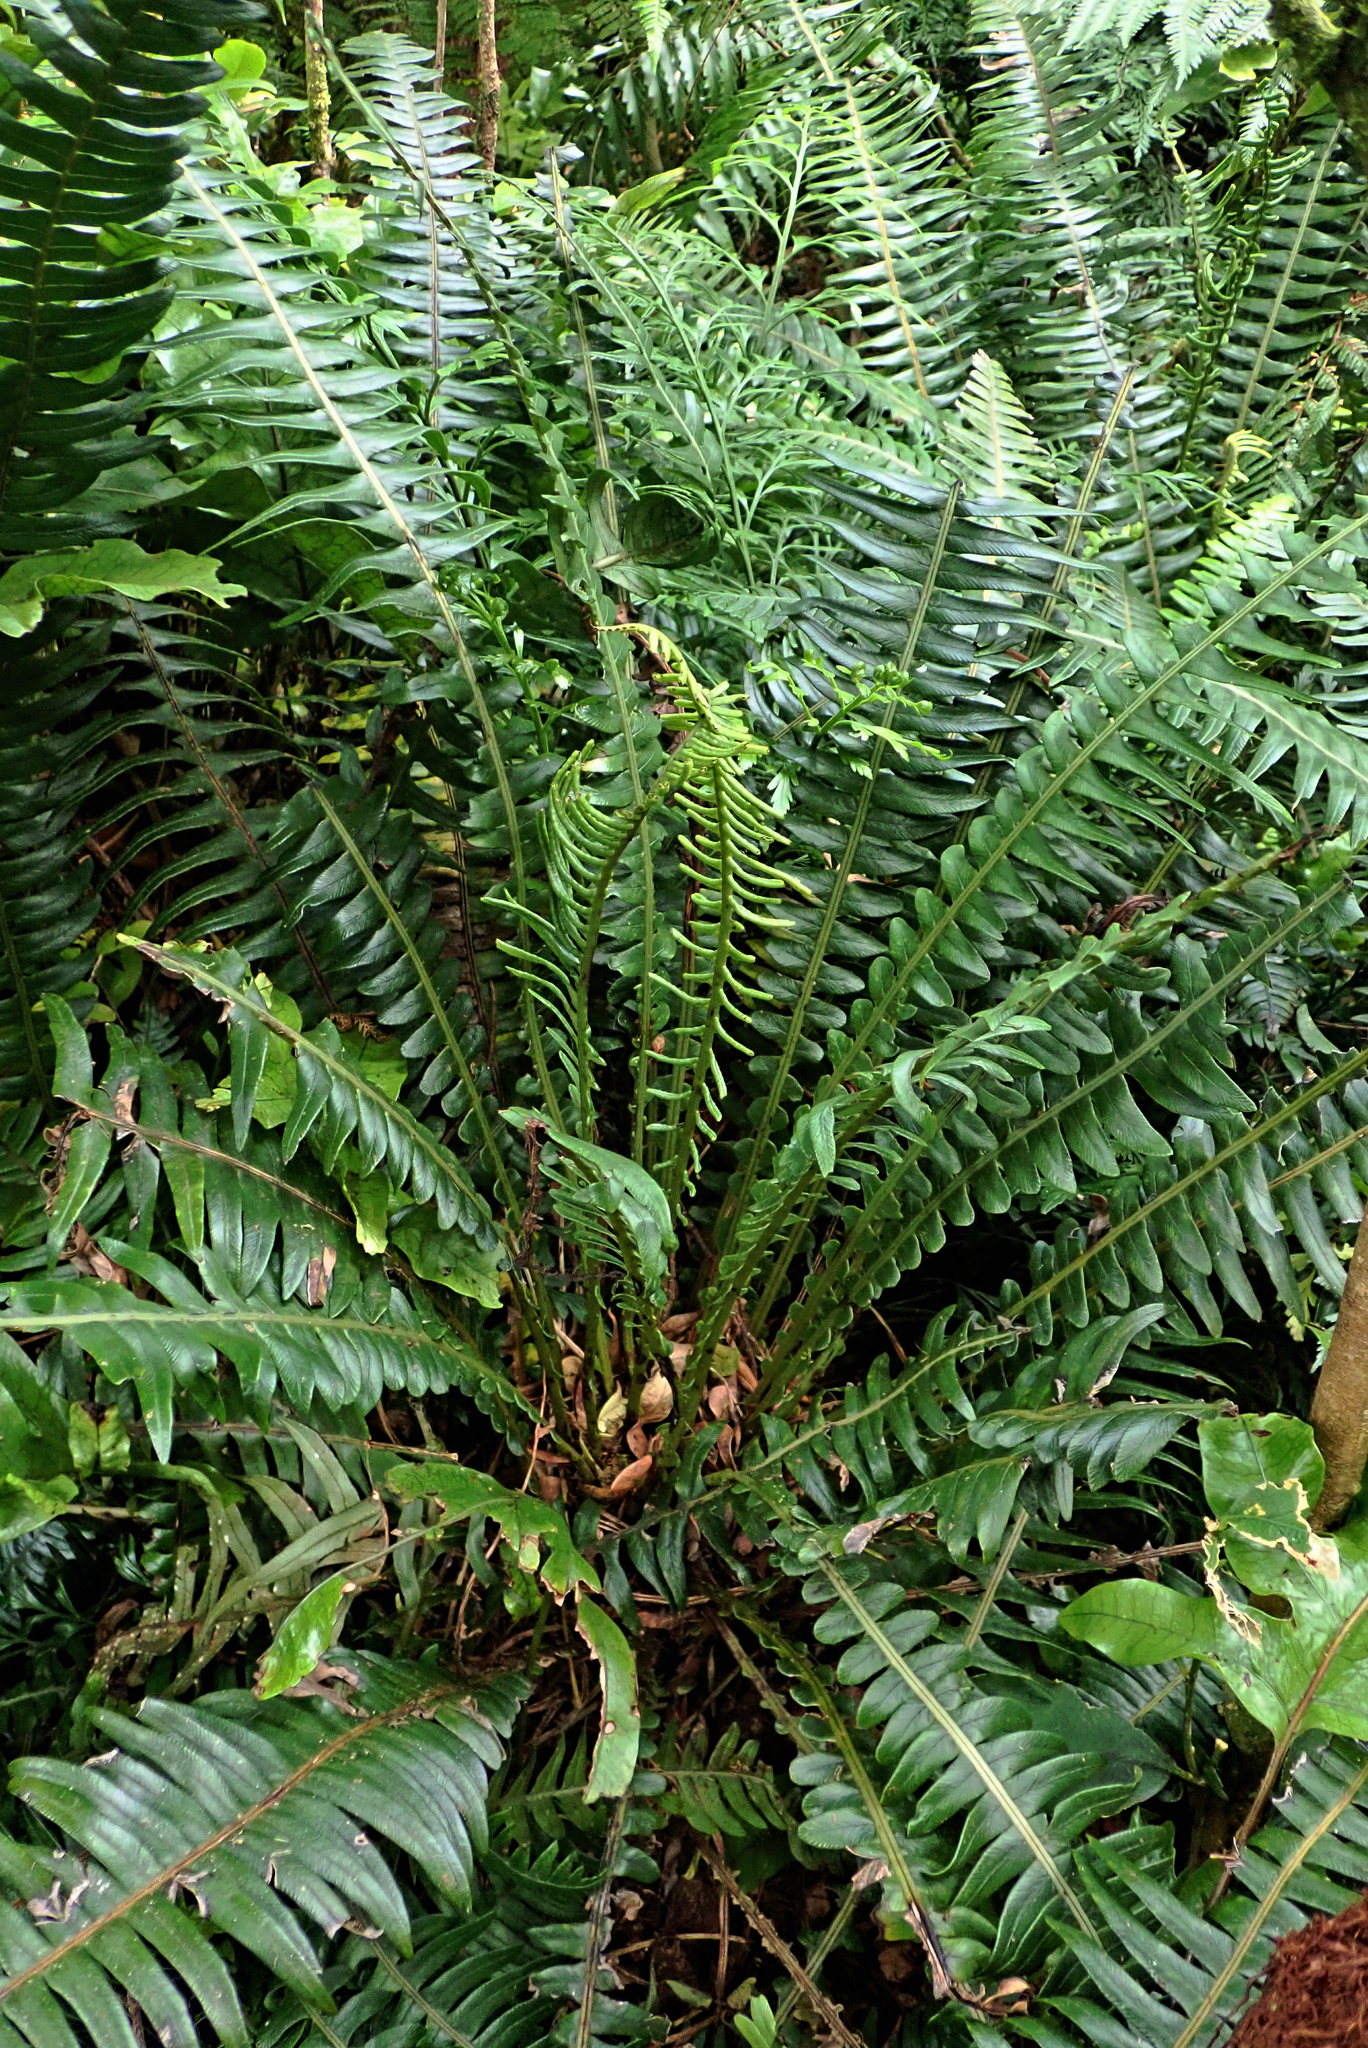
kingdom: Plantae
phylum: Tracheophyta
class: Polypodiopsida
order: Polypodiales
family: Blechnaceae
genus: Austroblechnum
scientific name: Austroblechnum durum
